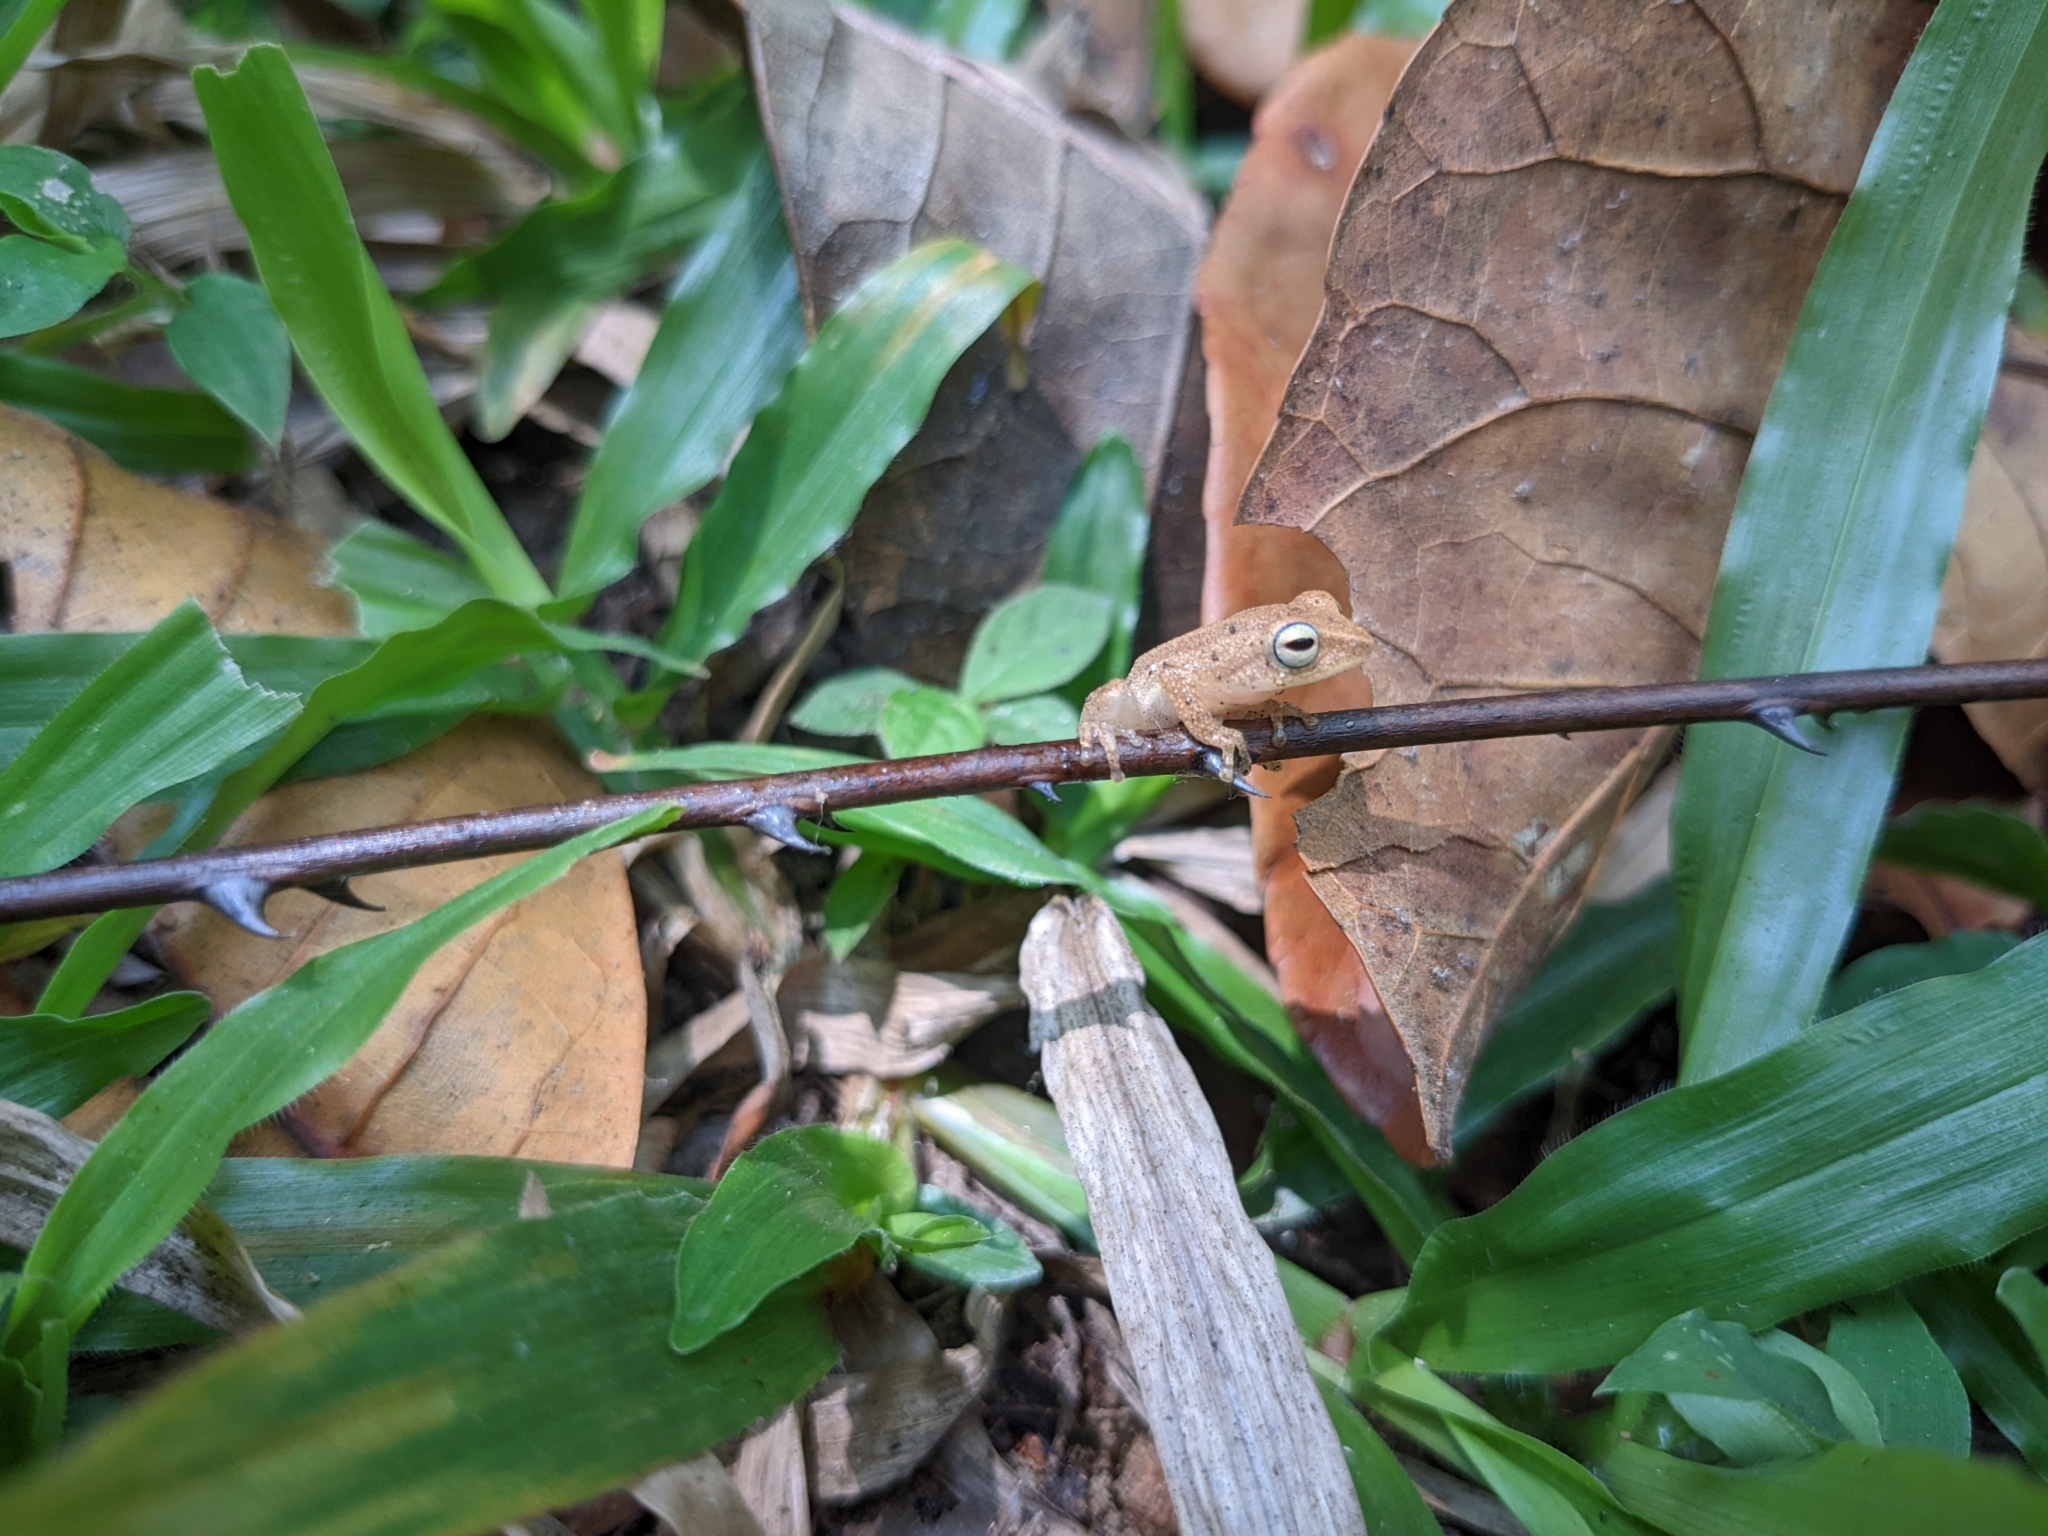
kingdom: Animalia
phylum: Chordata
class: Amphibia
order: Anura
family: Rhacophoridae
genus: Raorchestes
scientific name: Raorchestes luteolus
